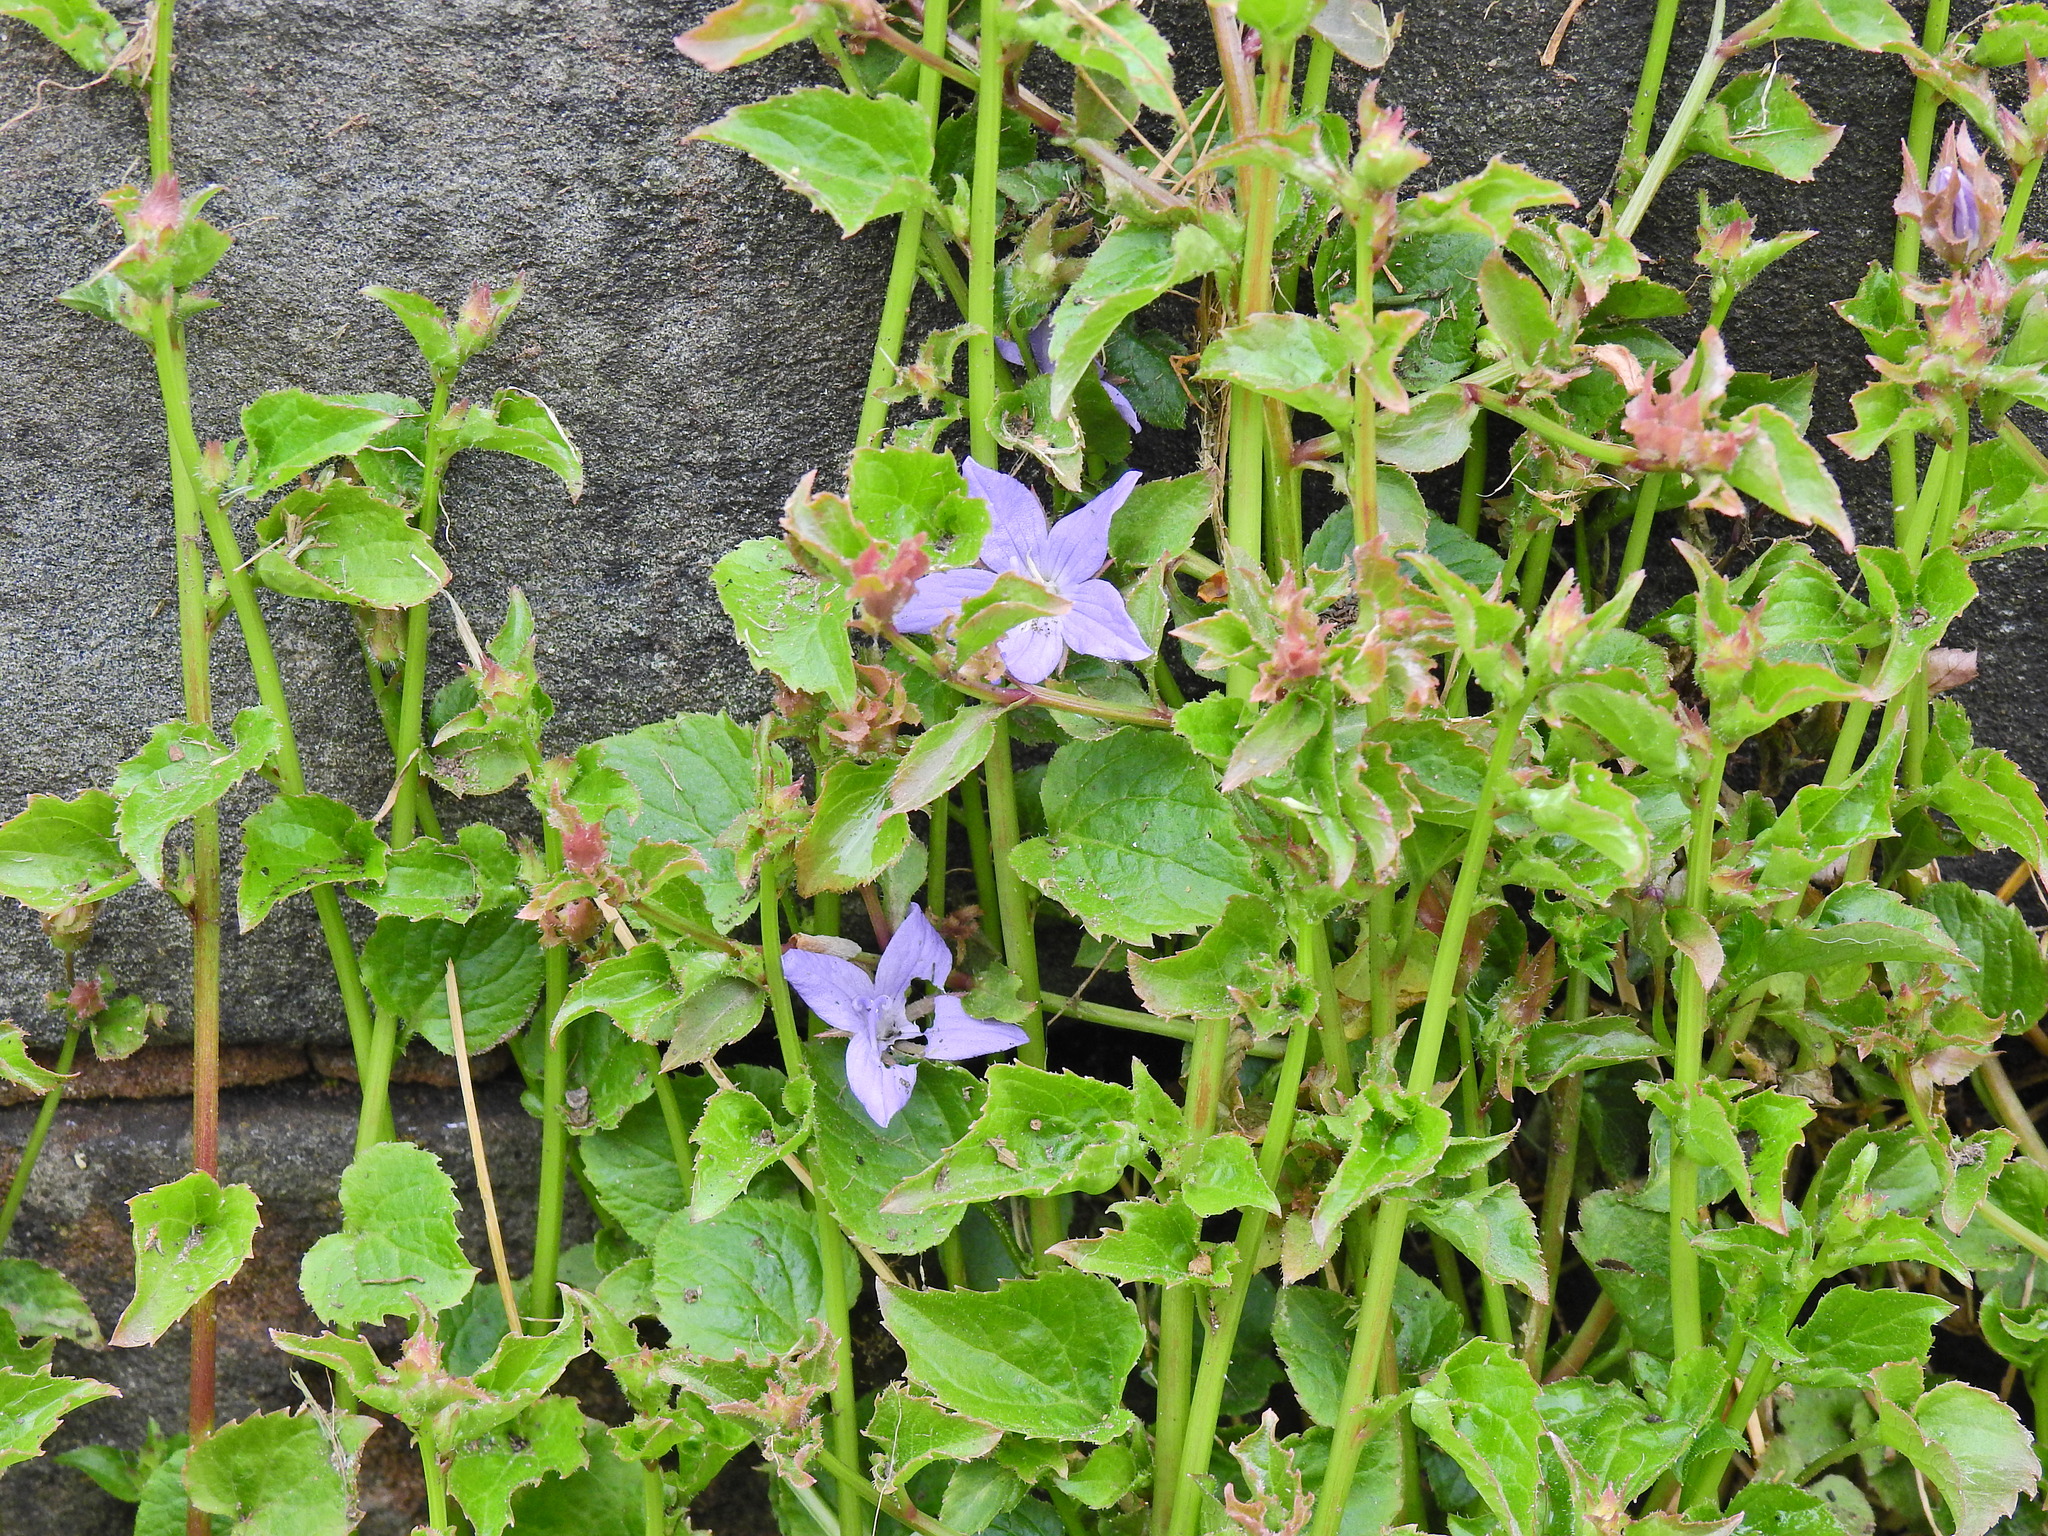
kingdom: Plantae
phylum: Tracheophyta
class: Magnoliopsida
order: Asterales
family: Campanulaceae
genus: Campanula
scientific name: Campanula poscharskyana
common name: Trailing bellflower
